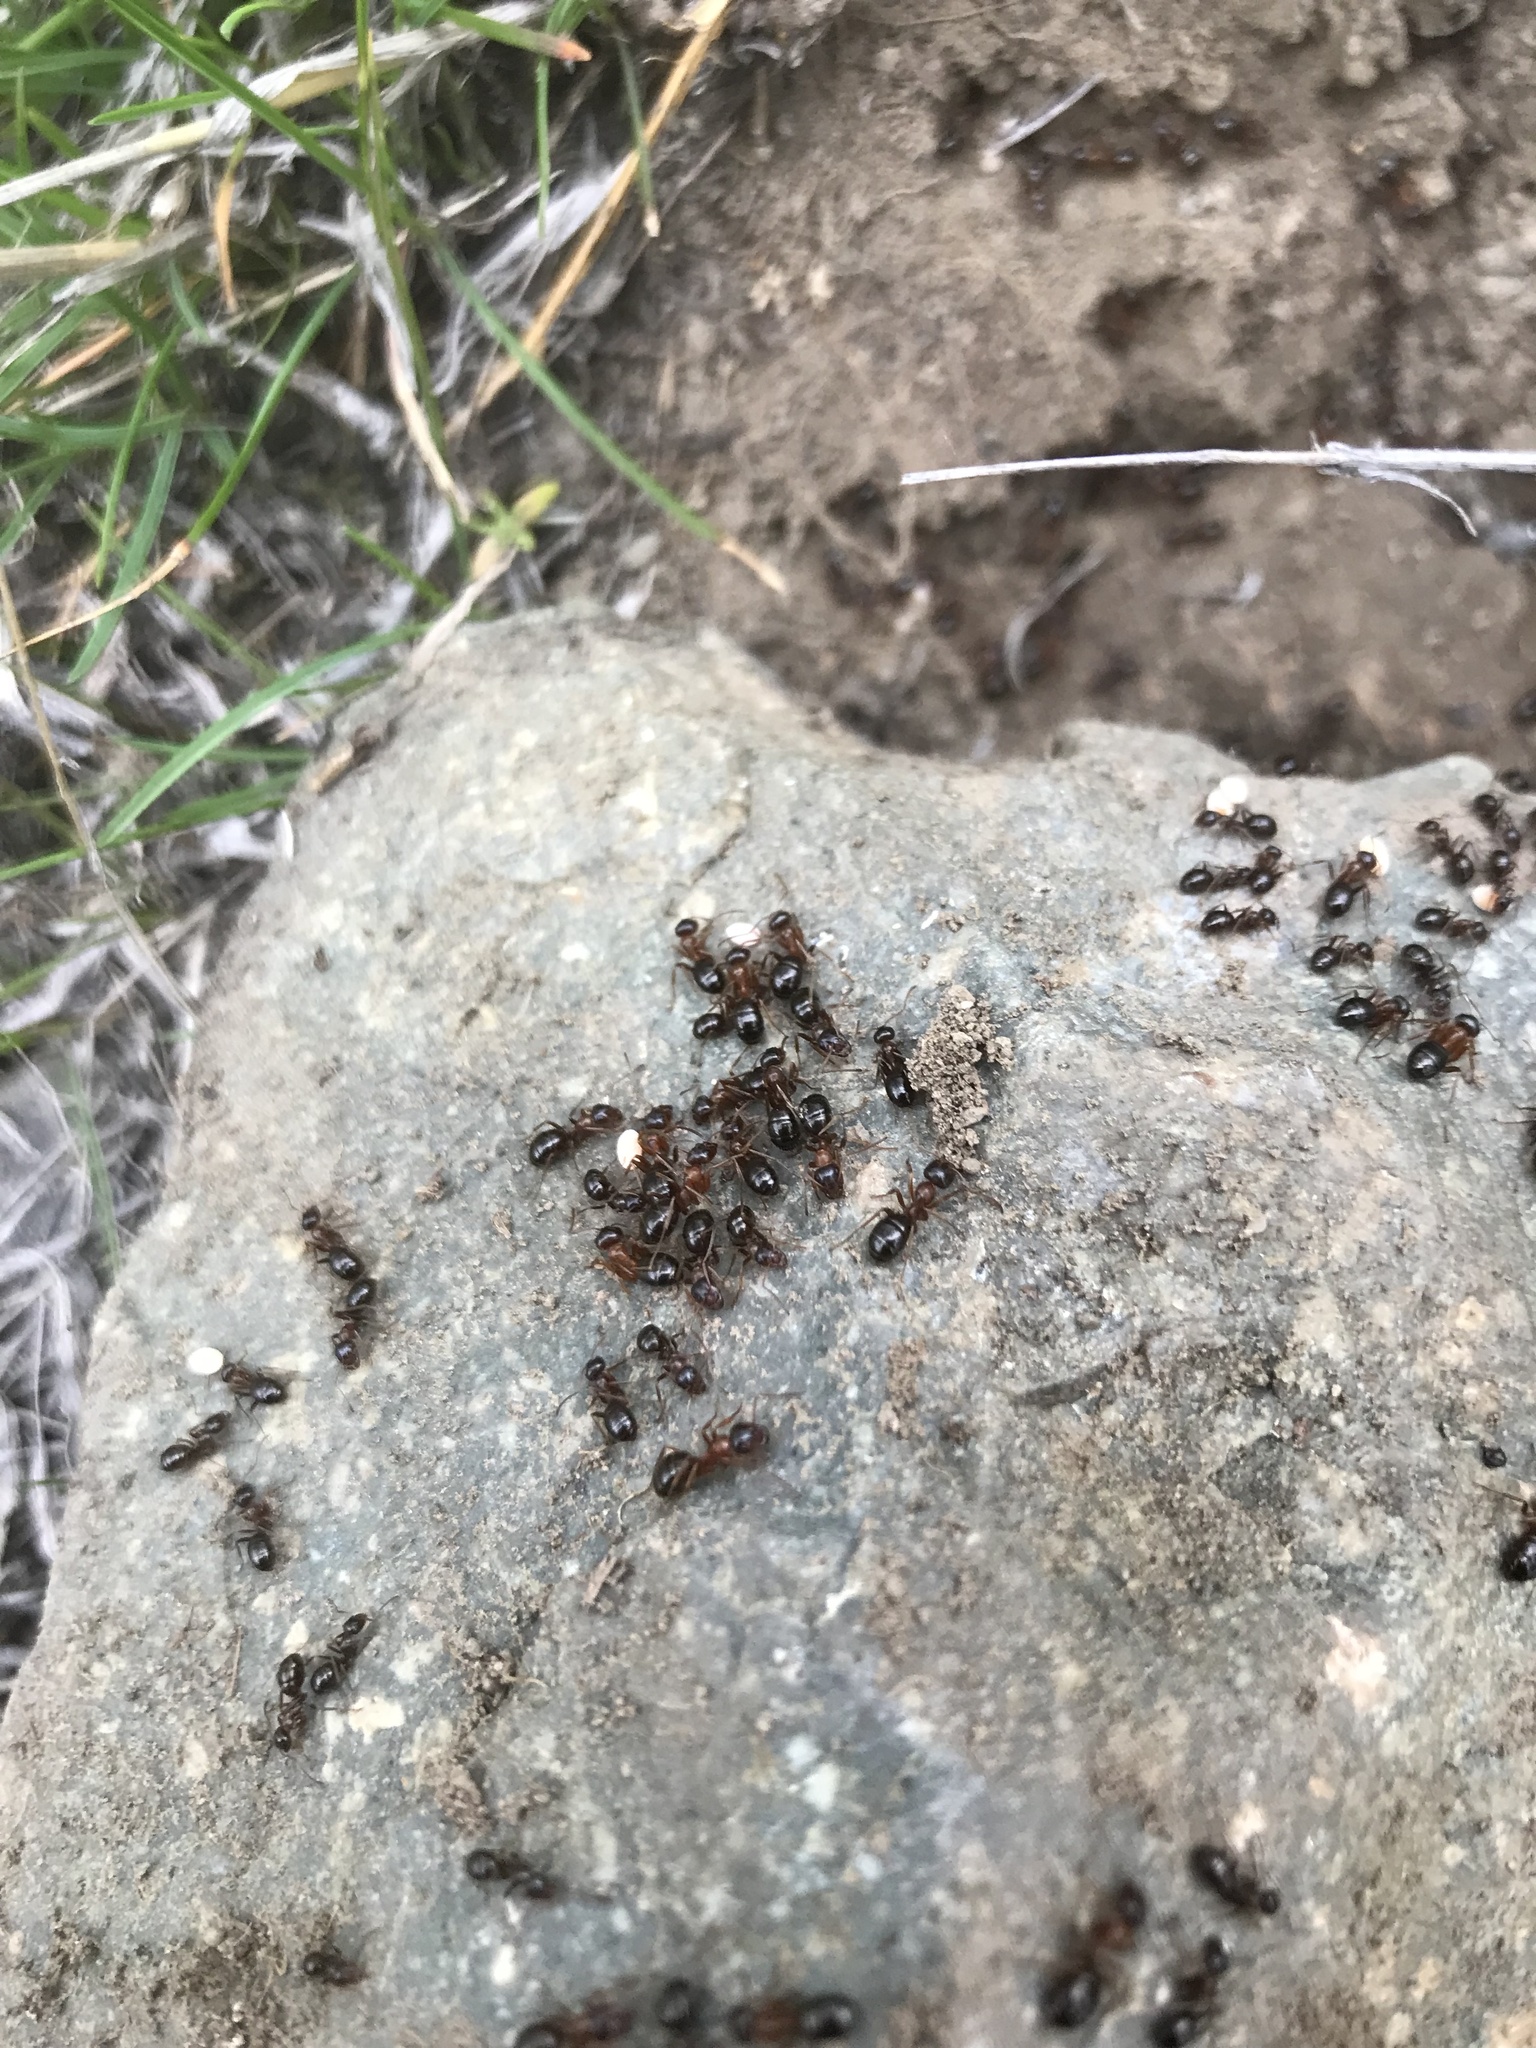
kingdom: Animalia
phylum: Arthropoda
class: Insecta
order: Hymenoptera
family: Formicidae
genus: Formica
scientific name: Formica subpolita
